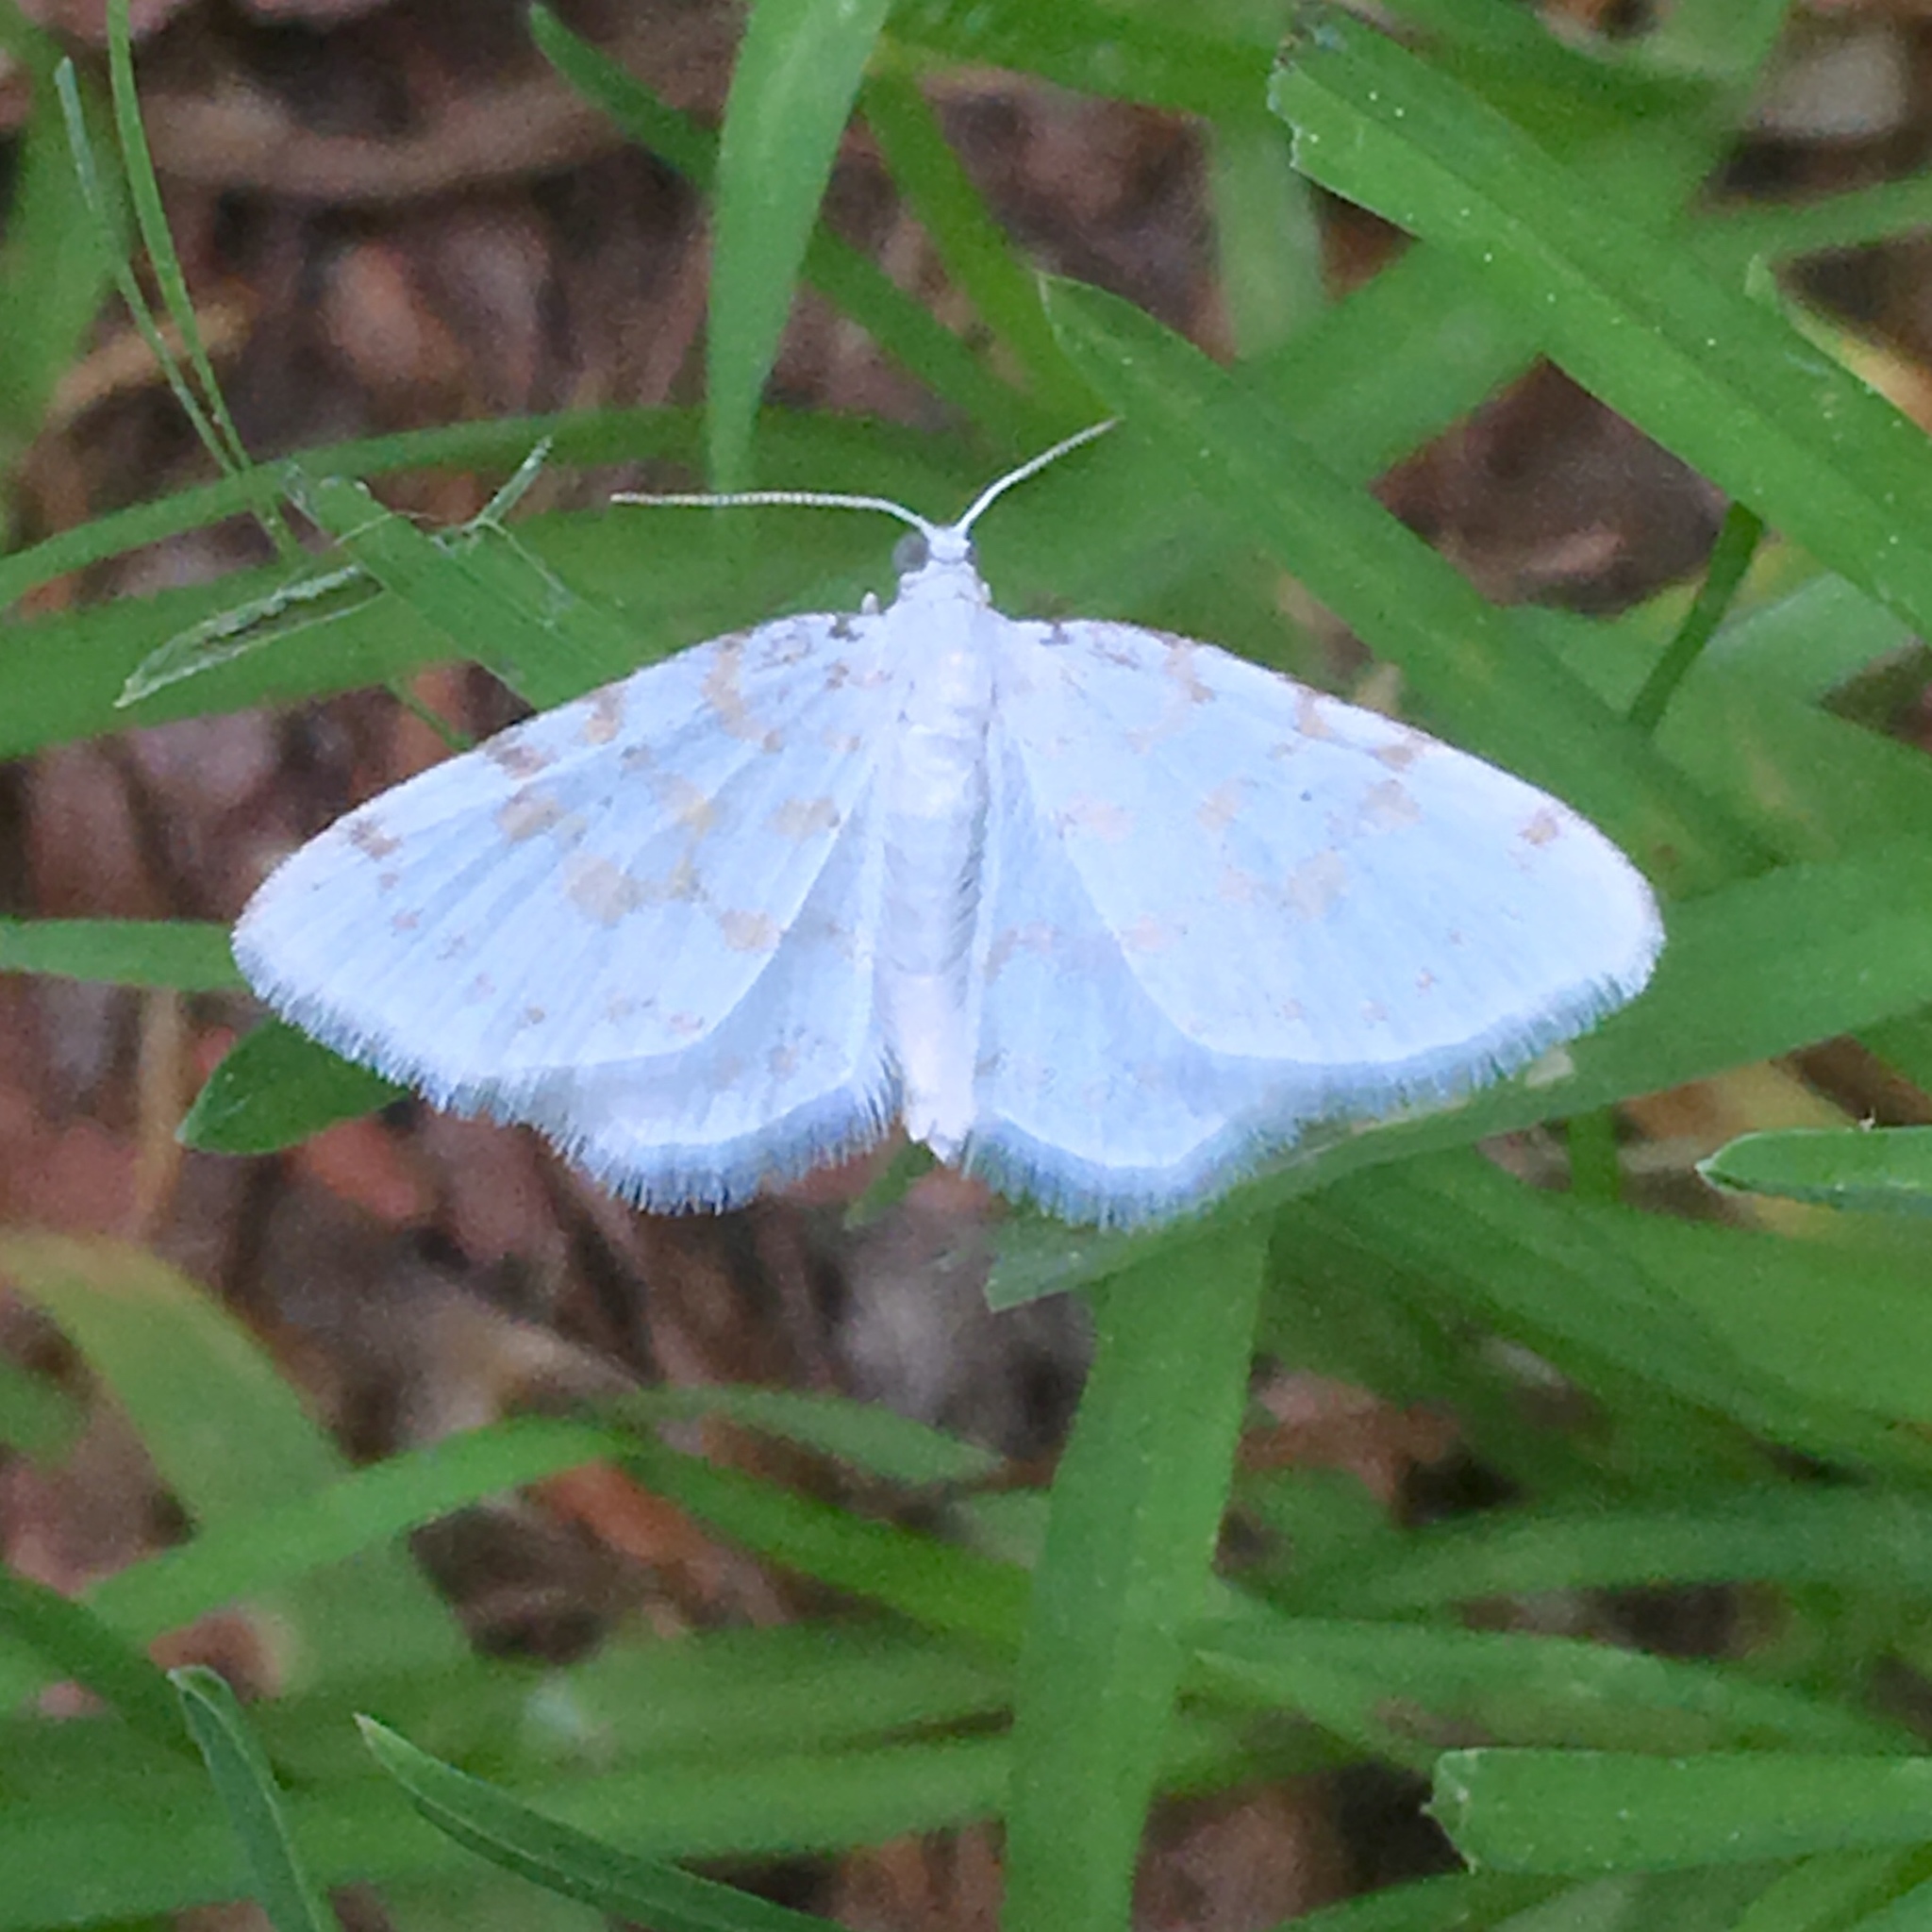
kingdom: Animalia
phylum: Arthropoda
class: Insecta
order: Lepidoptera
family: Geometridae
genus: Hydrelia
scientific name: Hydrelia albifera
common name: Fragile white carpet
